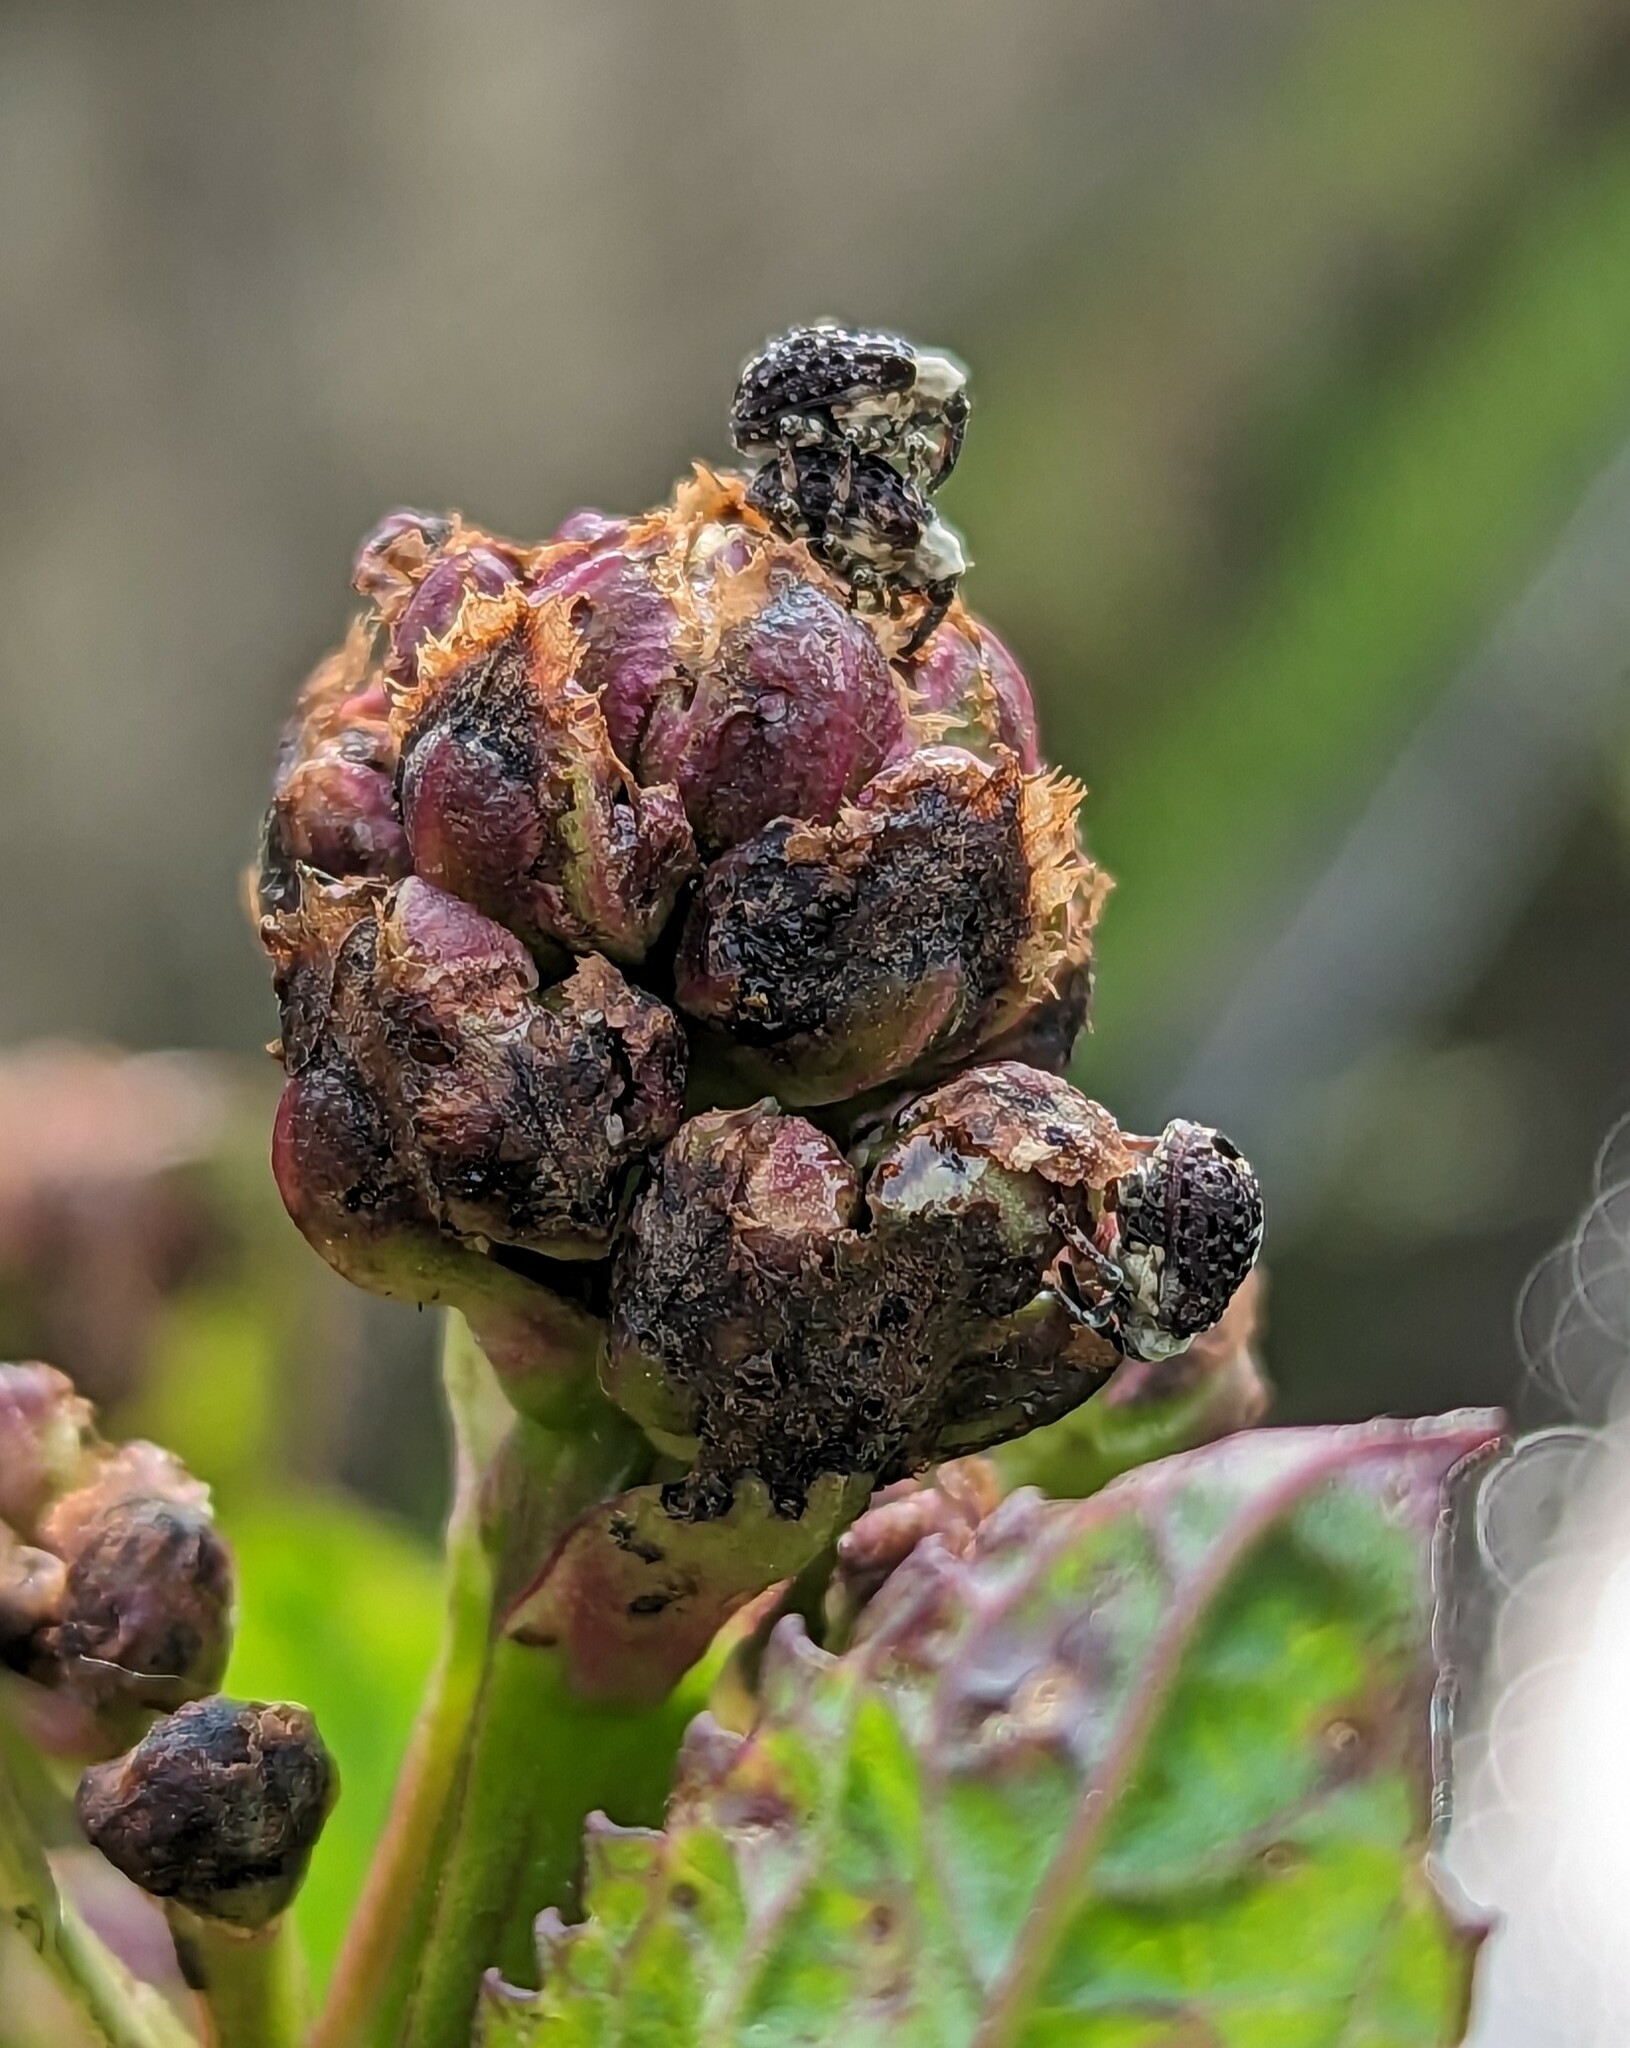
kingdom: Animalia
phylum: Arthropoda
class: Insecta
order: Coleoptera
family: Curculionidae
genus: Cionus
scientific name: Cionus scrophulariae
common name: Common figwort weevil
